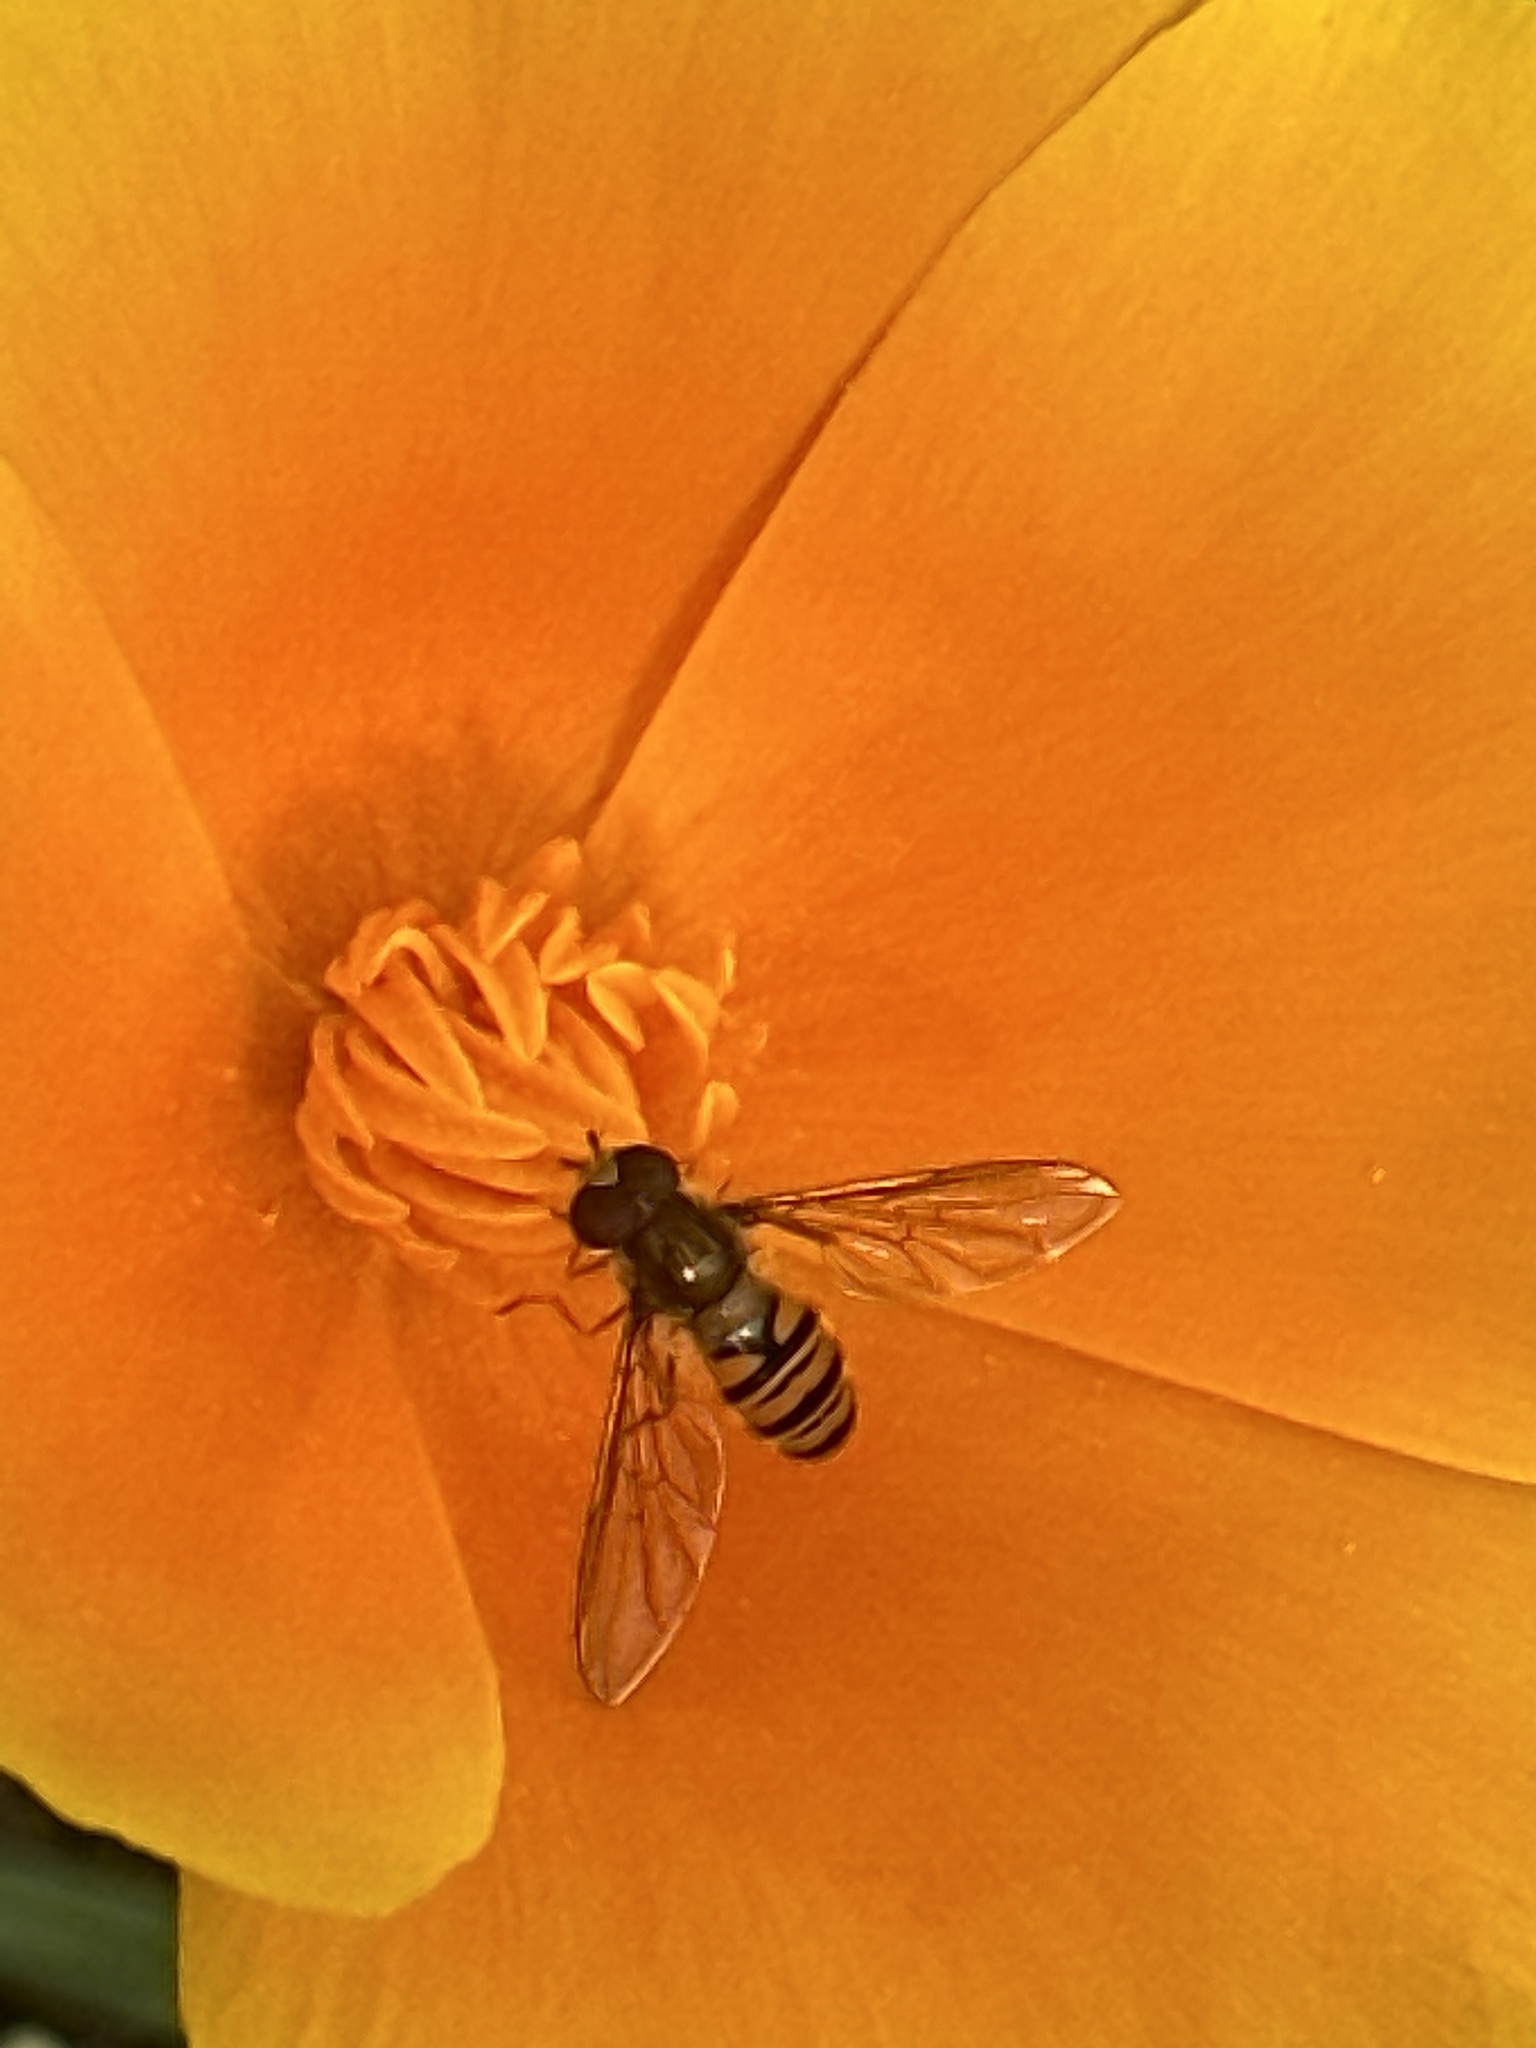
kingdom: Animalia
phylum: Arthropoda
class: Insecta
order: Diptera
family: Syrphidae
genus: Episyrphus
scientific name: Episyrphus balteatus
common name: Marmalade hoverfly
